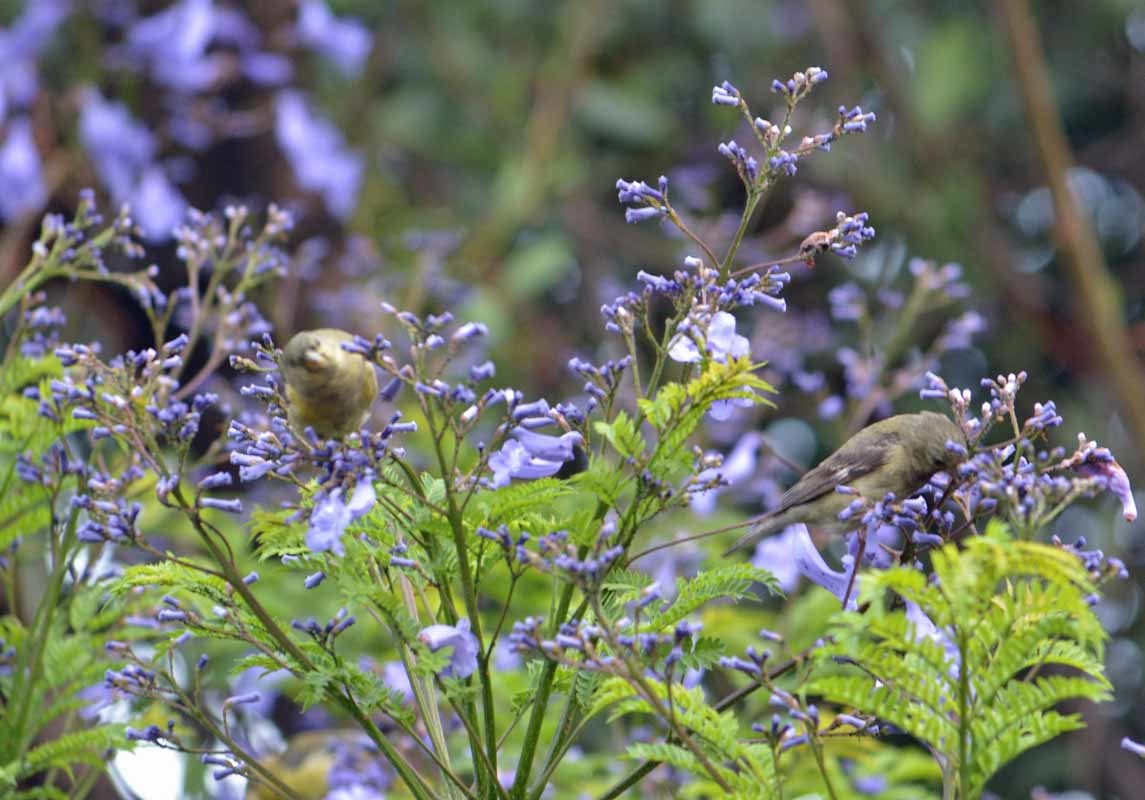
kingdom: Animalia
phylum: Chordata
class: Aves
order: Passeriformes
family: Fringillidae
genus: Spinus
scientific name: Spinus psaltria
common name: Lesser goldfinch
